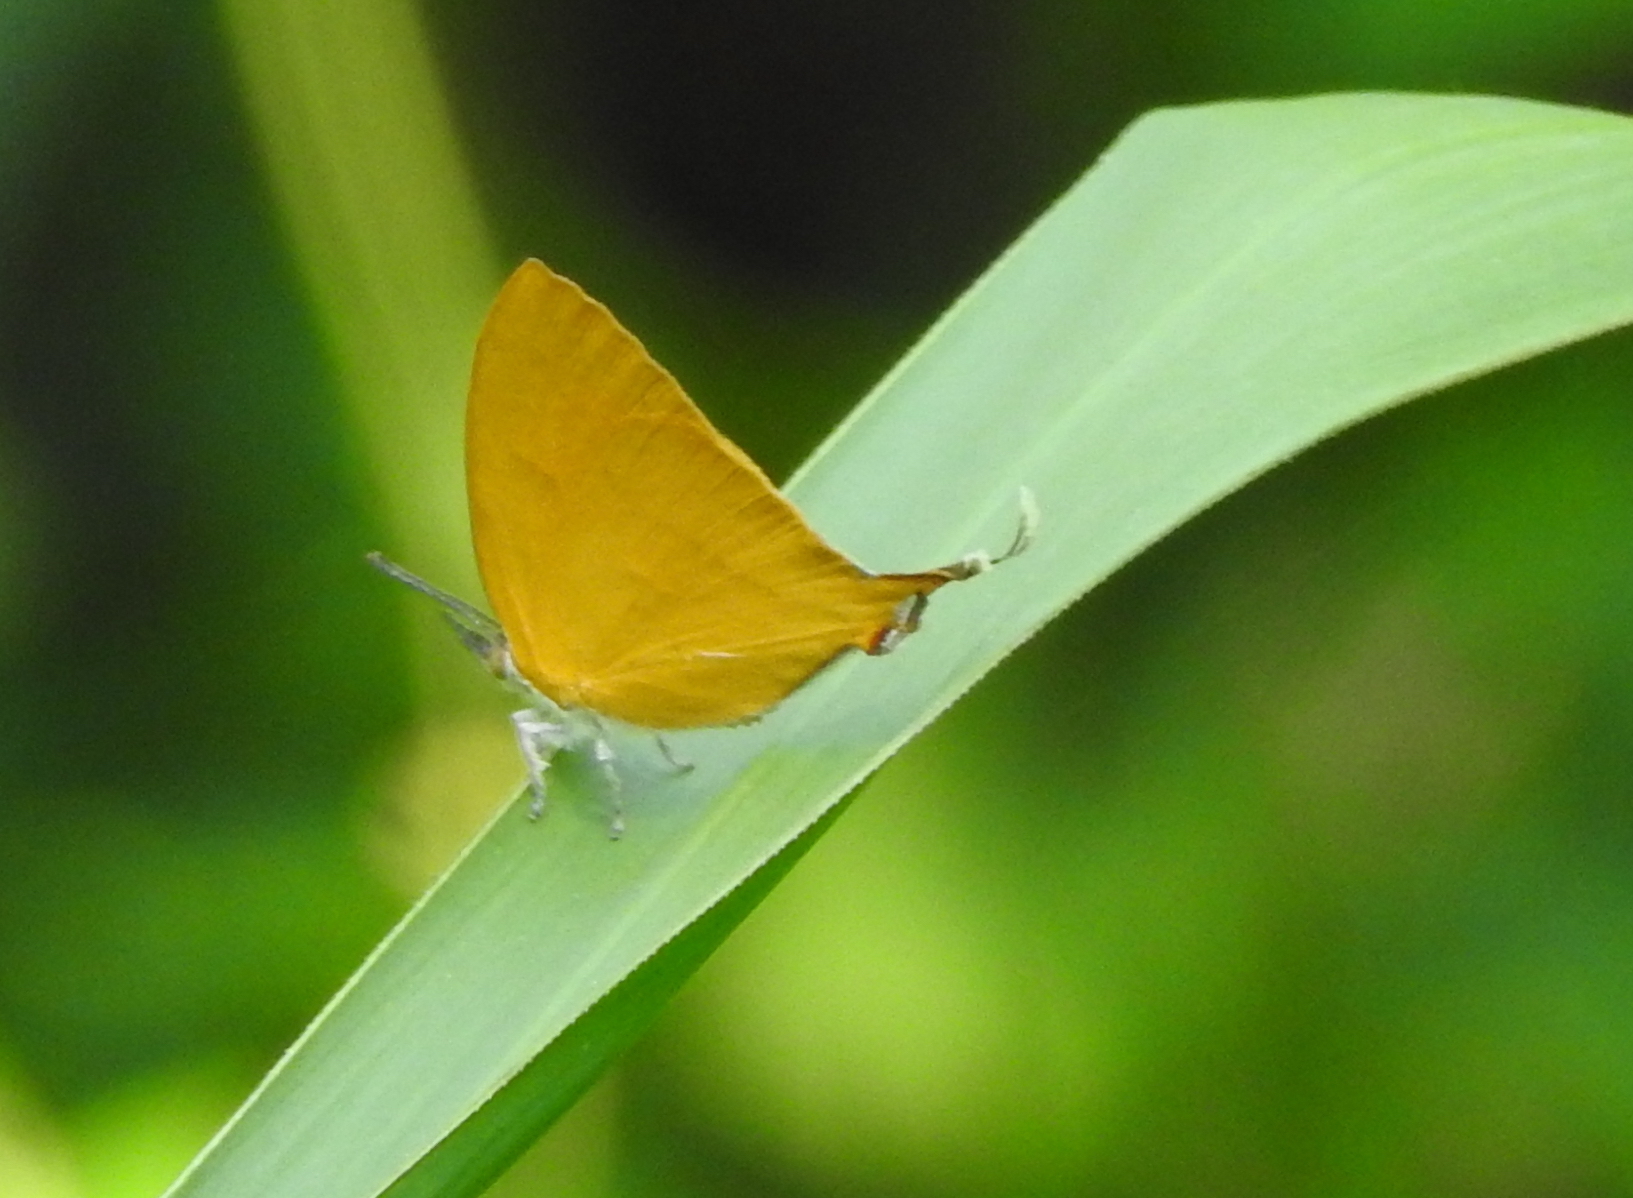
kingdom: Animalia
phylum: Arthropoda
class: Insecta
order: Lepidoptera
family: Lycaenidae
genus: Loxura
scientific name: Loxura atymnus
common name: Common yamfly
